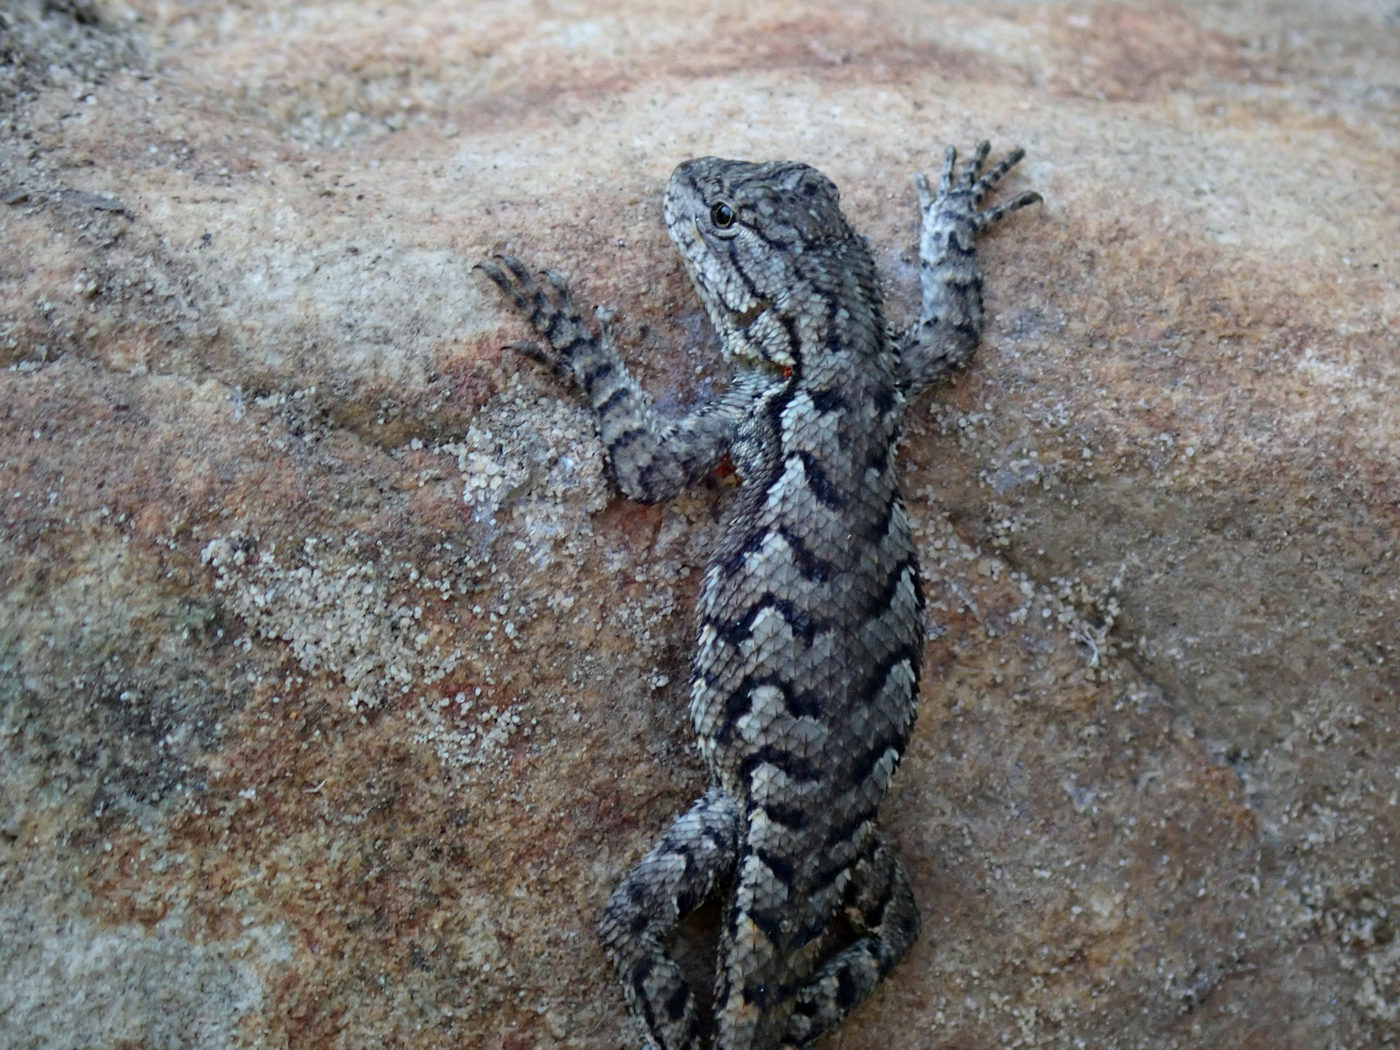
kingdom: Animalia
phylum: Chordata
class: Squamata
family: Phrynosomatidae
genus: Sceloporus
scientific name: Sceloporus undulatus
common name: Eastern fence lizard
